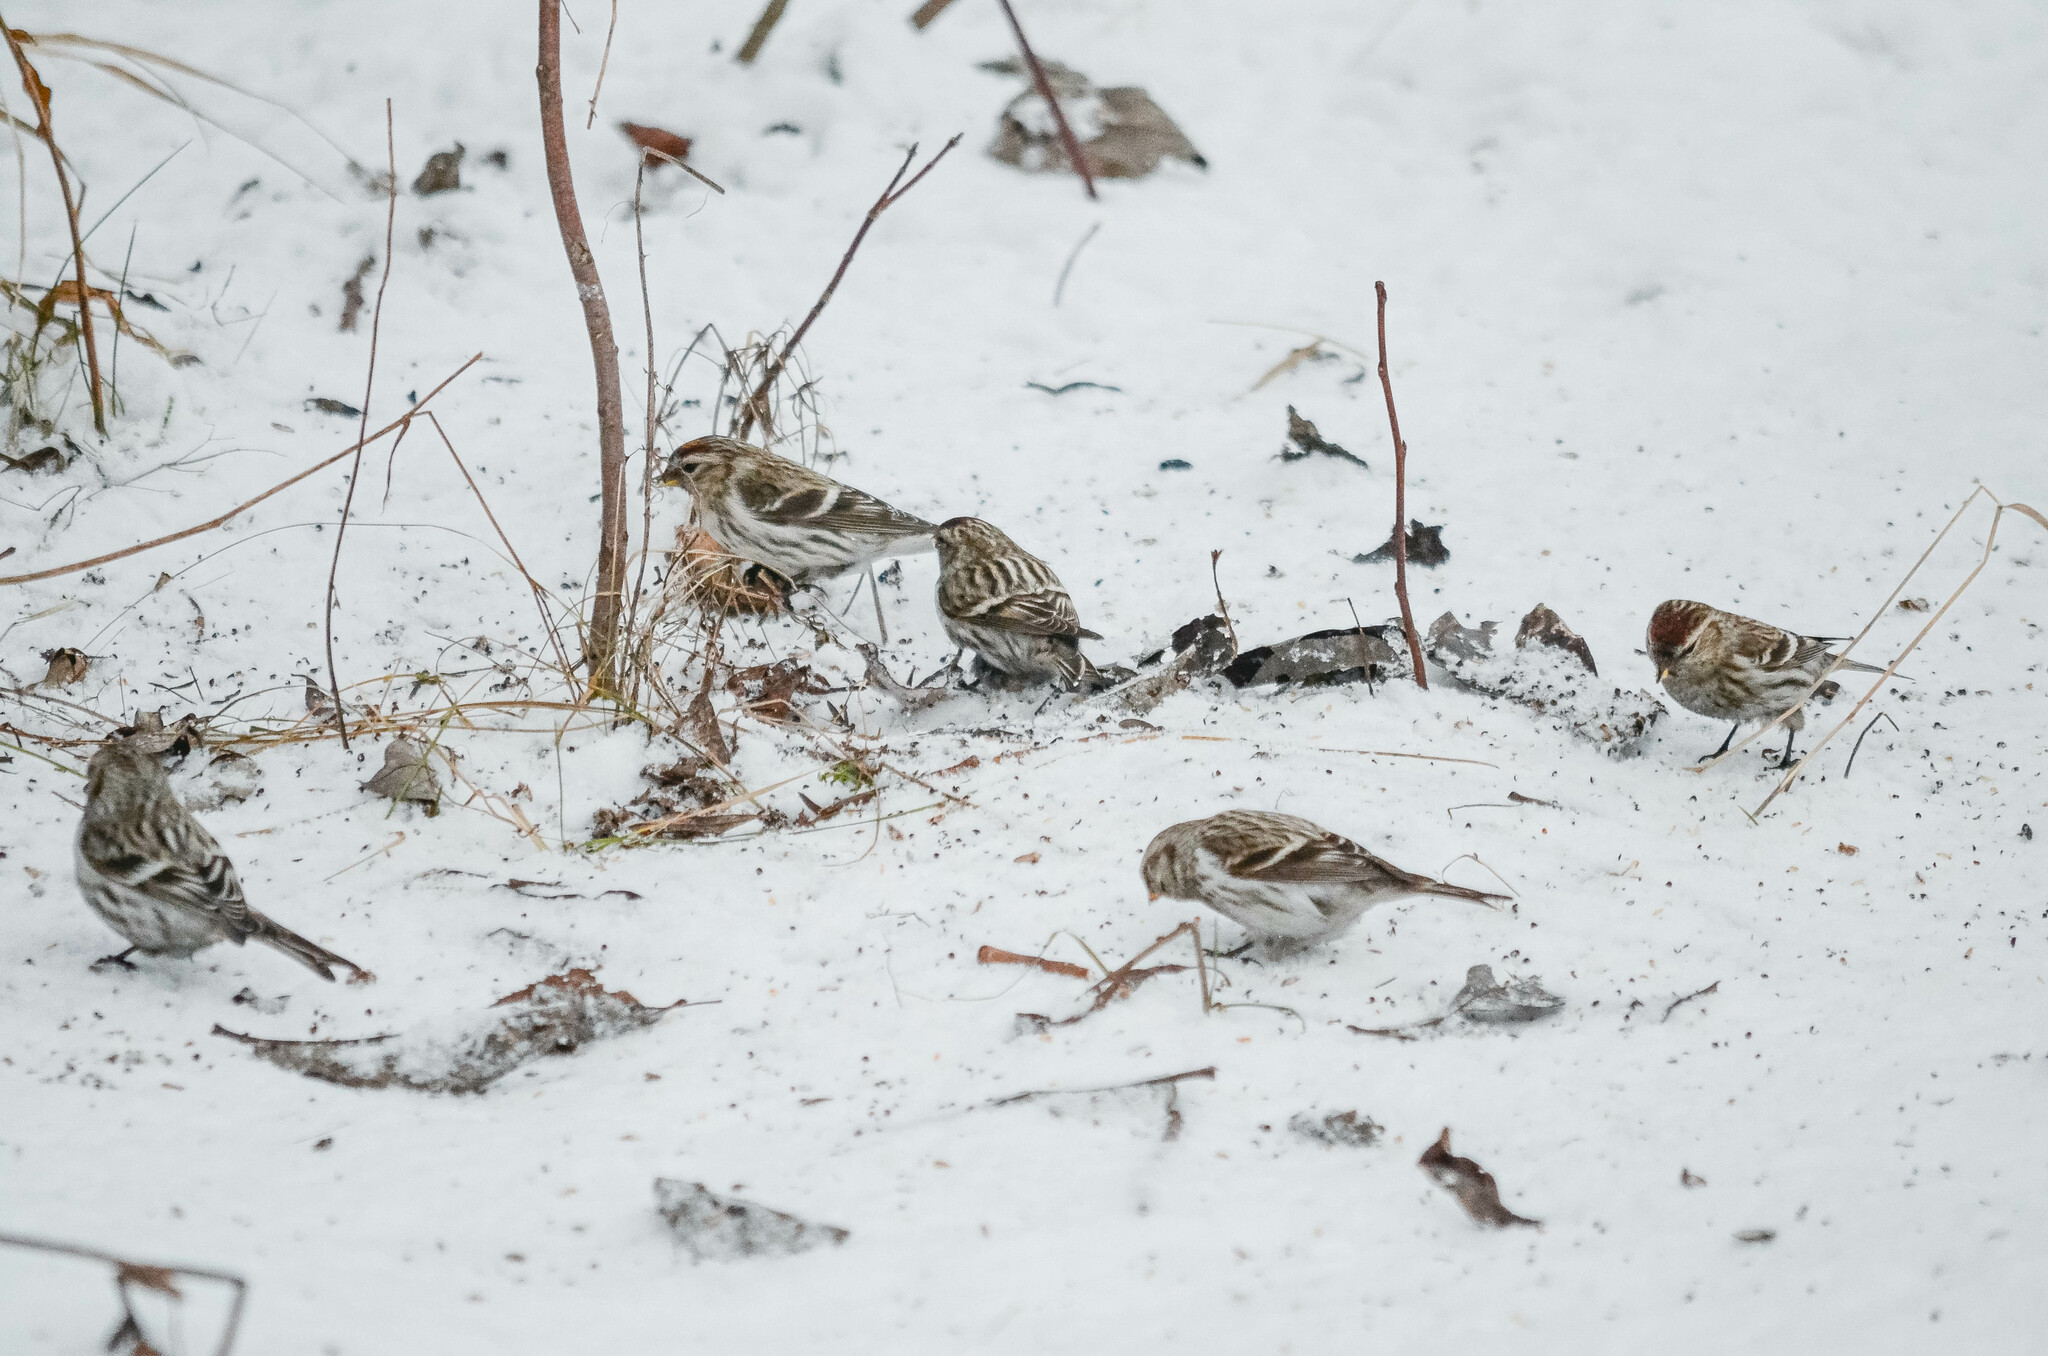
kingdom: Animalia
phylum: Chordata
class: Aves
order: Passeriformes
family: Fringillidae
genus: Acanthis
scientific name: Acanthis flammea
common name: Common redpoll
